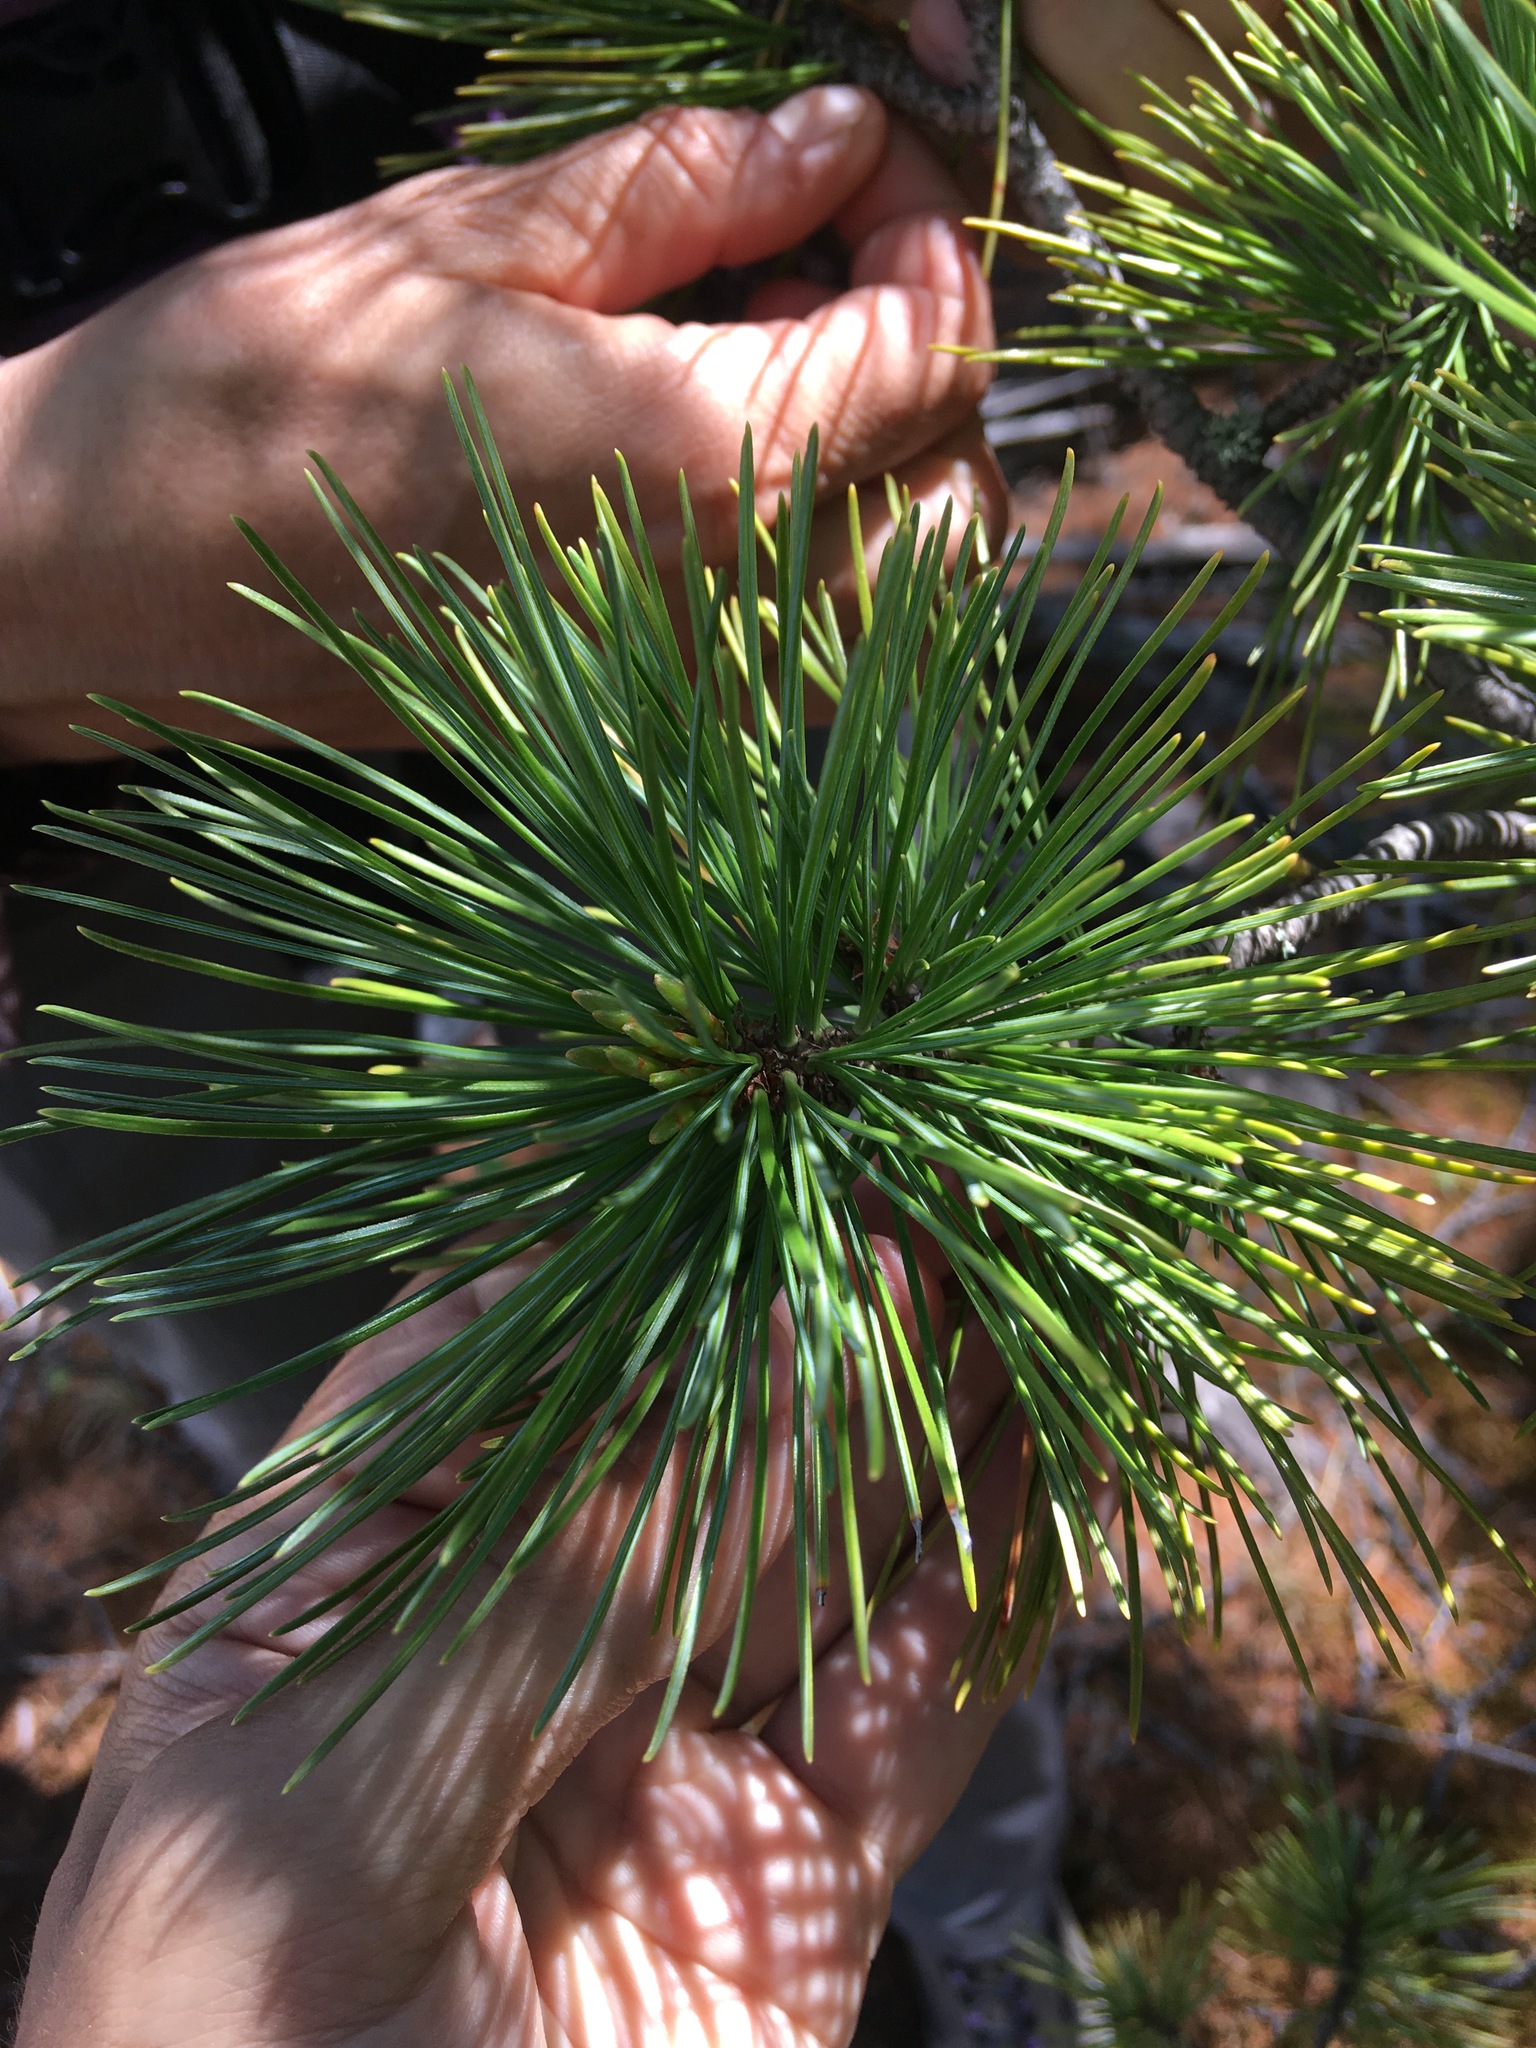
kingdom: Plantae
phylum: Tracheophyta
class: Pinopsida
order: Pinales
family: Pinaceae
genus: Pinus
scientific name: Pinus sibirica
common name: Siberian pine
